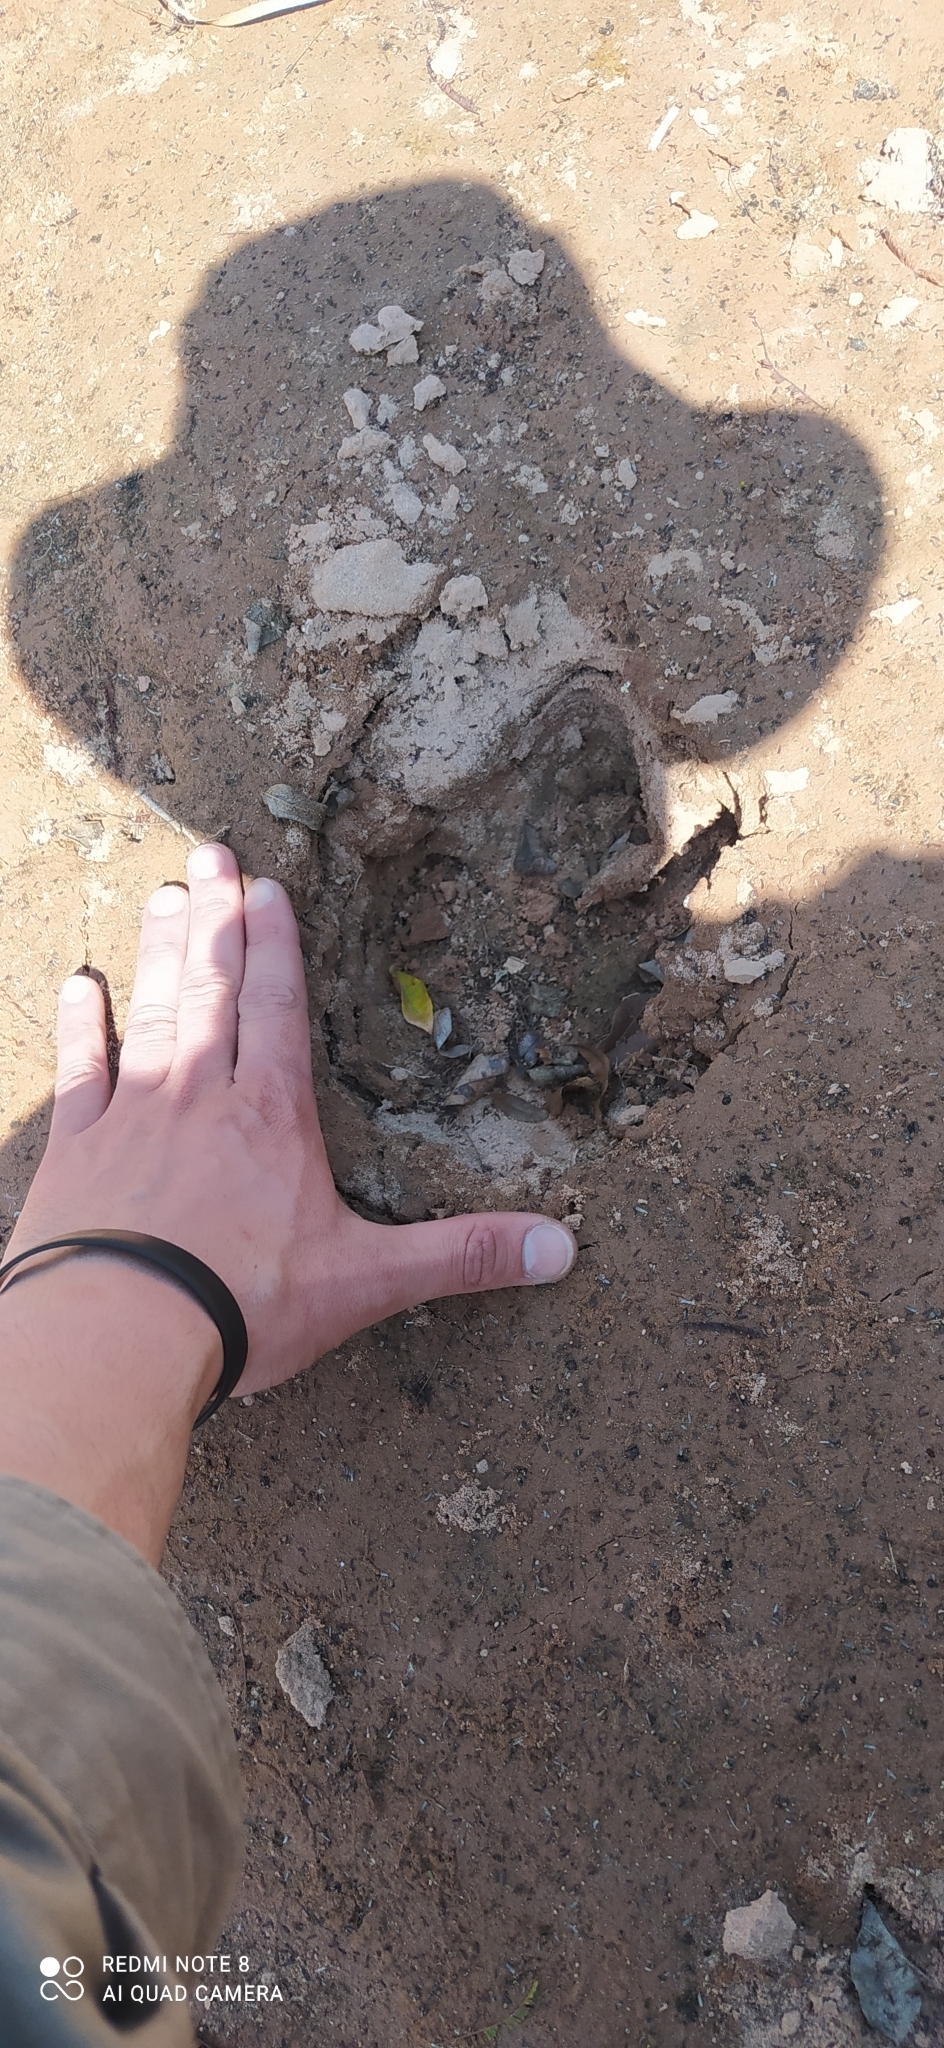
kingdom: Animalia
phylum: Chordata
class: Mammalia
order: Perissodactyla
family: Tapiridae
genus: Tapirus
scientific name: Tapirus terrestris
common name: Brazilian tapir
